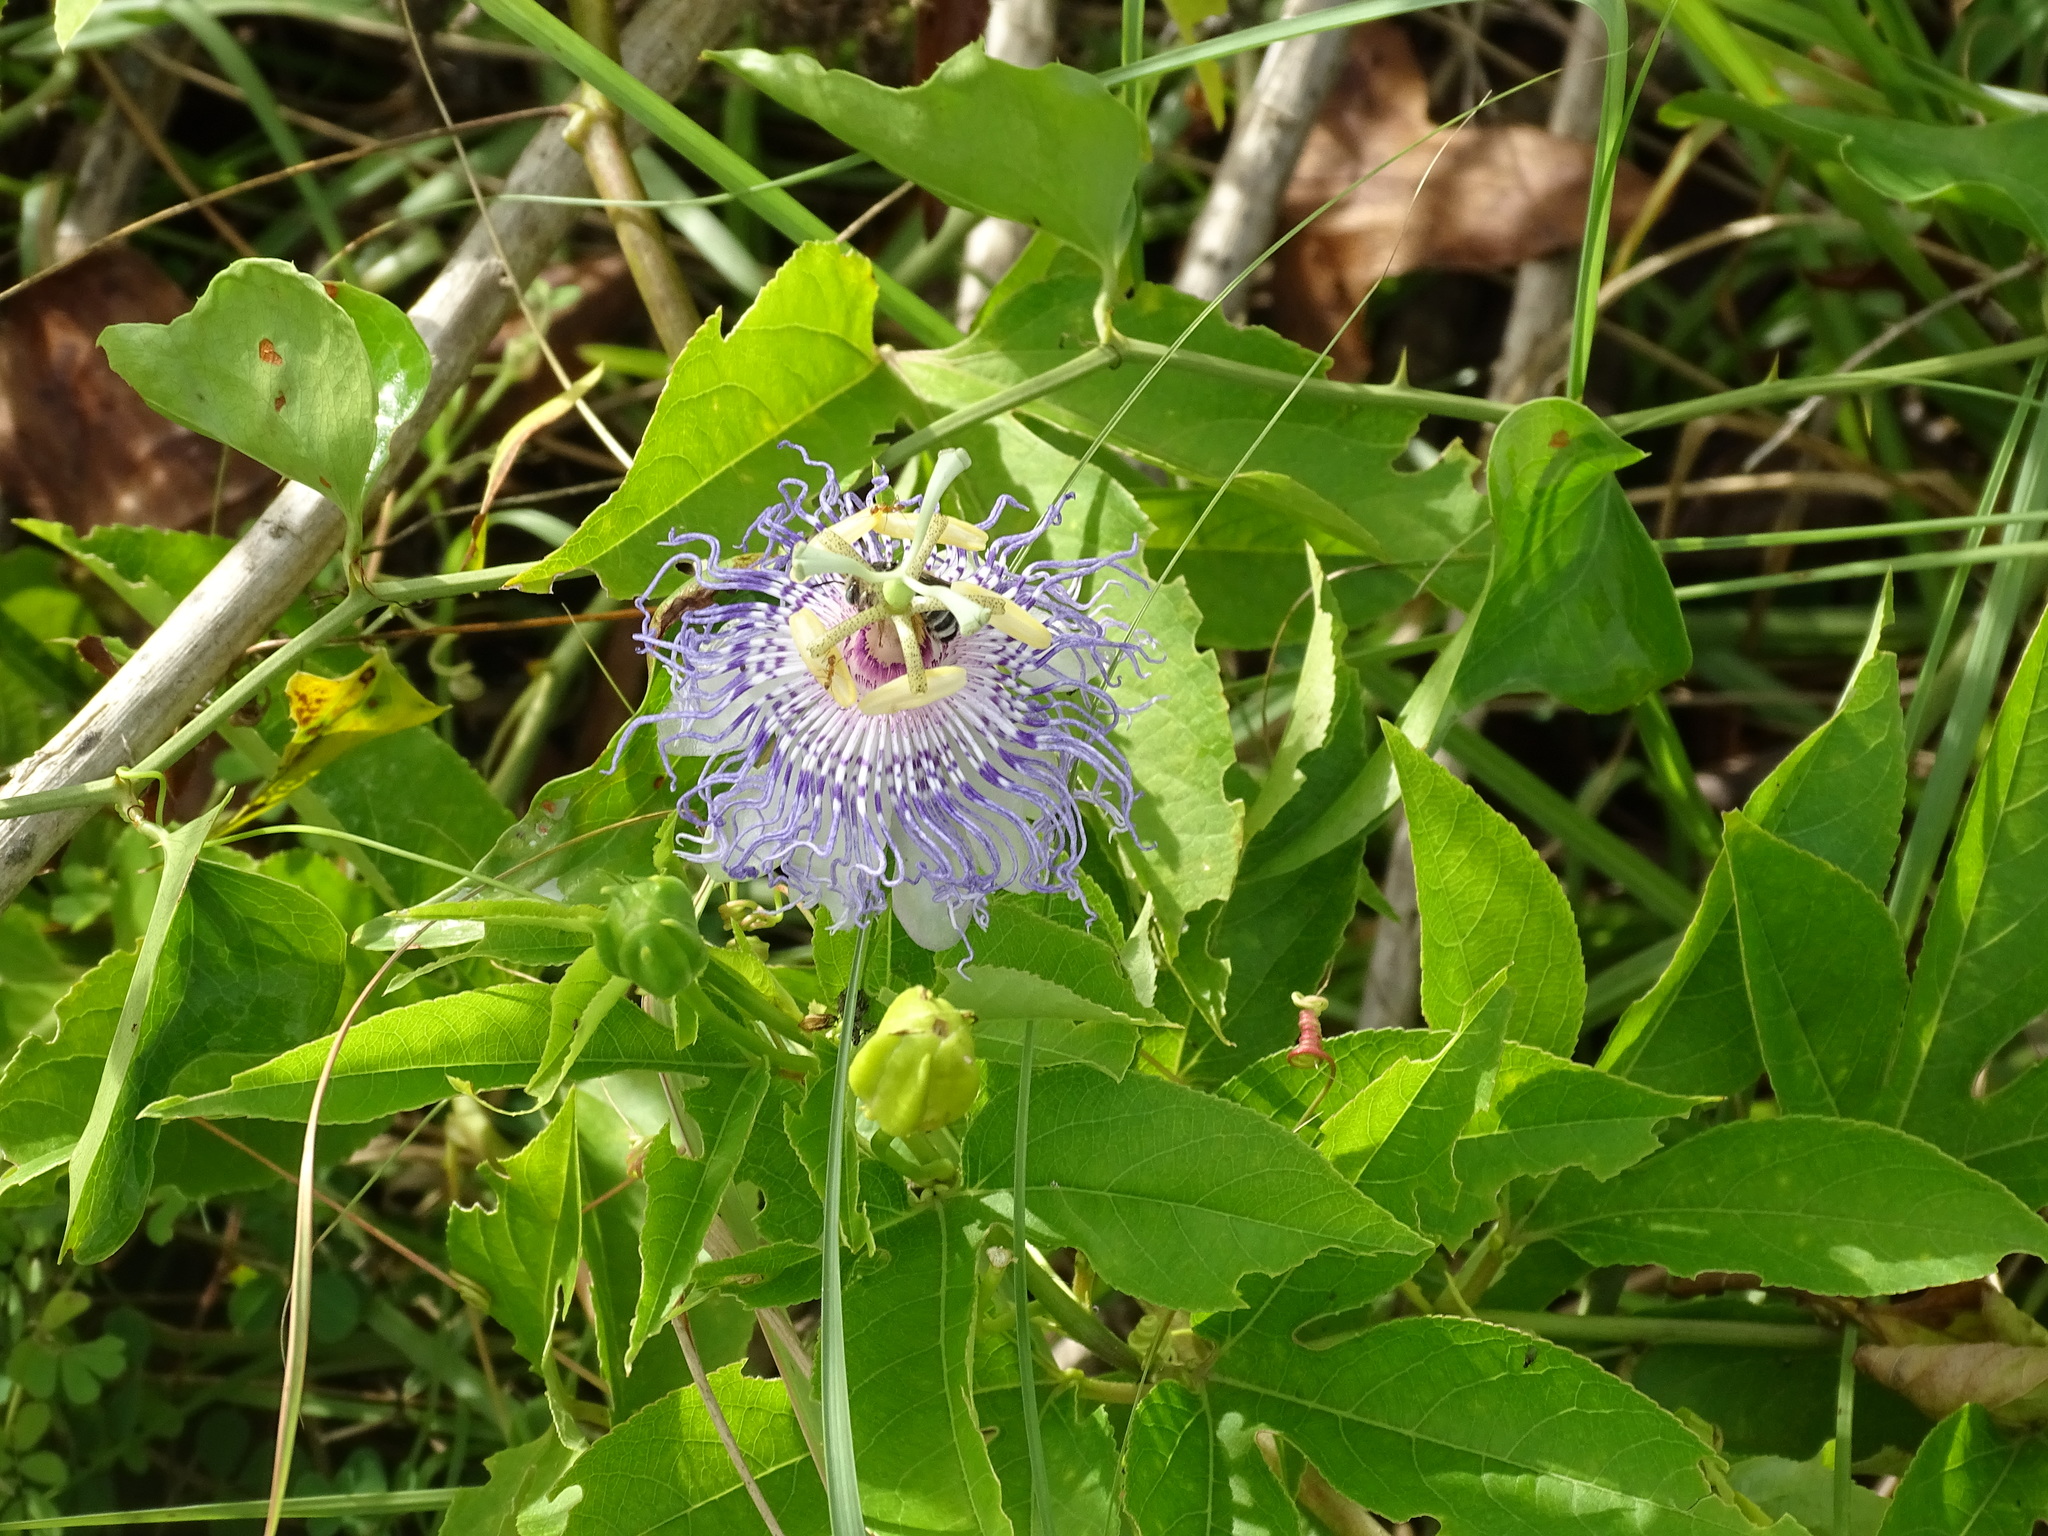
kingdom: Plantae
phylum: Tracheophyta
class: Magnoliopsida
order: Malpighiales
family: Passifloraceae
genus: Passiflora
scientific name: Passiflora incarnata
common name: Apricot-vine
